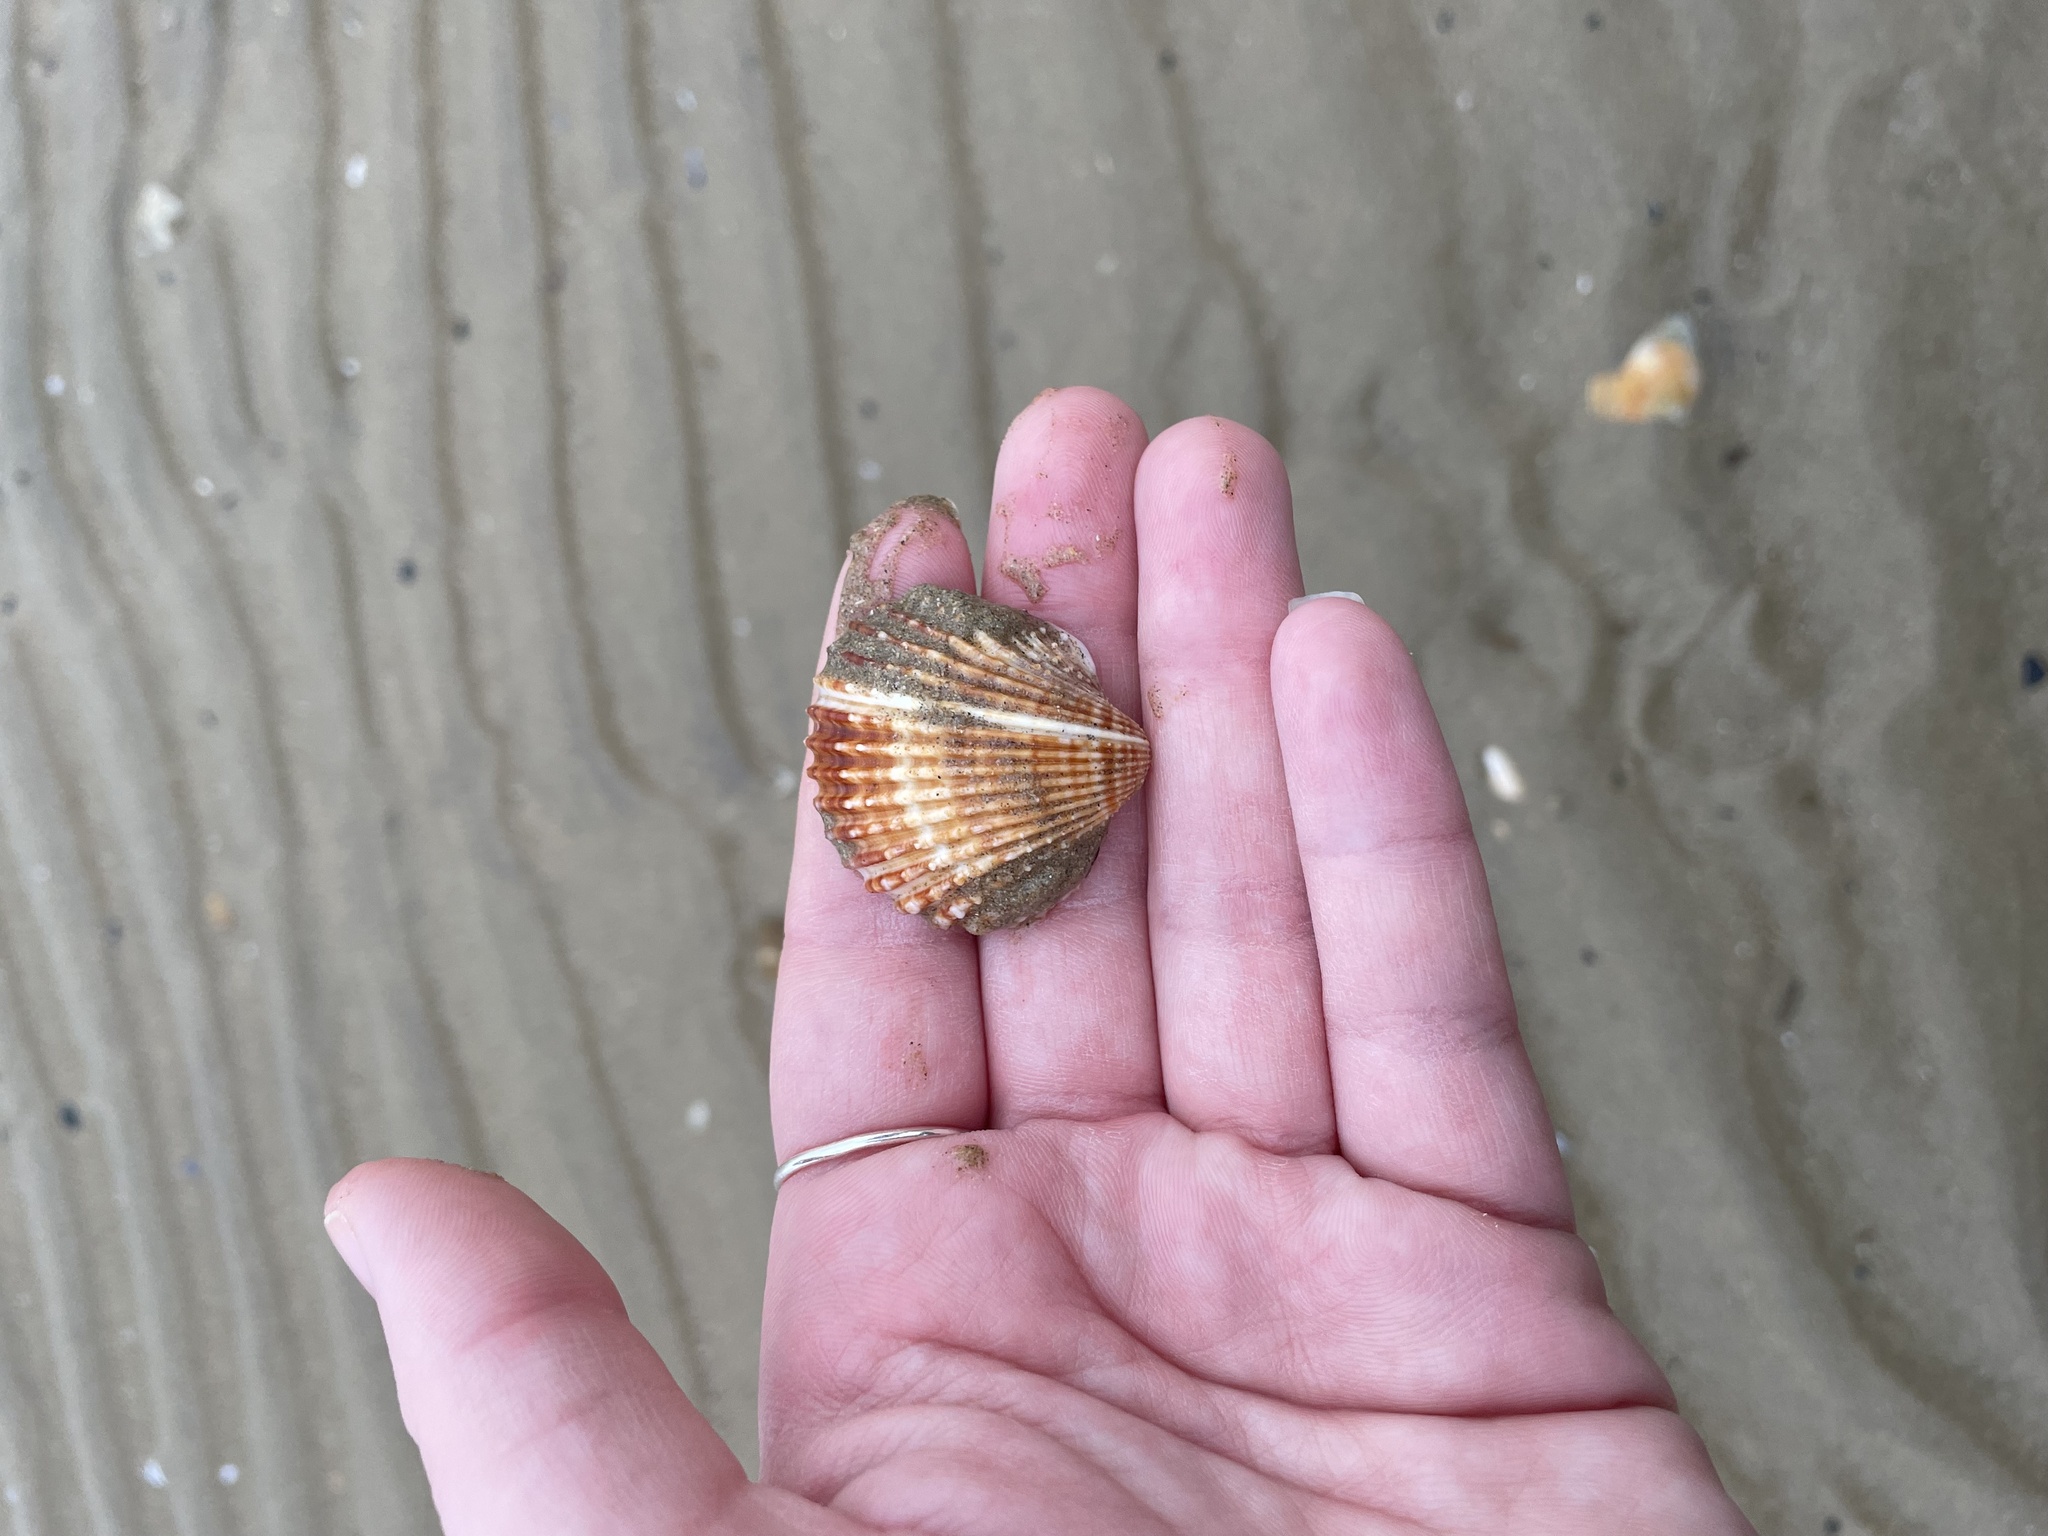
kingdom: Animalia
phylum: Mollusca
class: Bivalvia
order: Cardiida
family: Cardiidae
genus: Acanthocardia
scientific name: Acanthocardia echinata
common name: Prickly cockle
